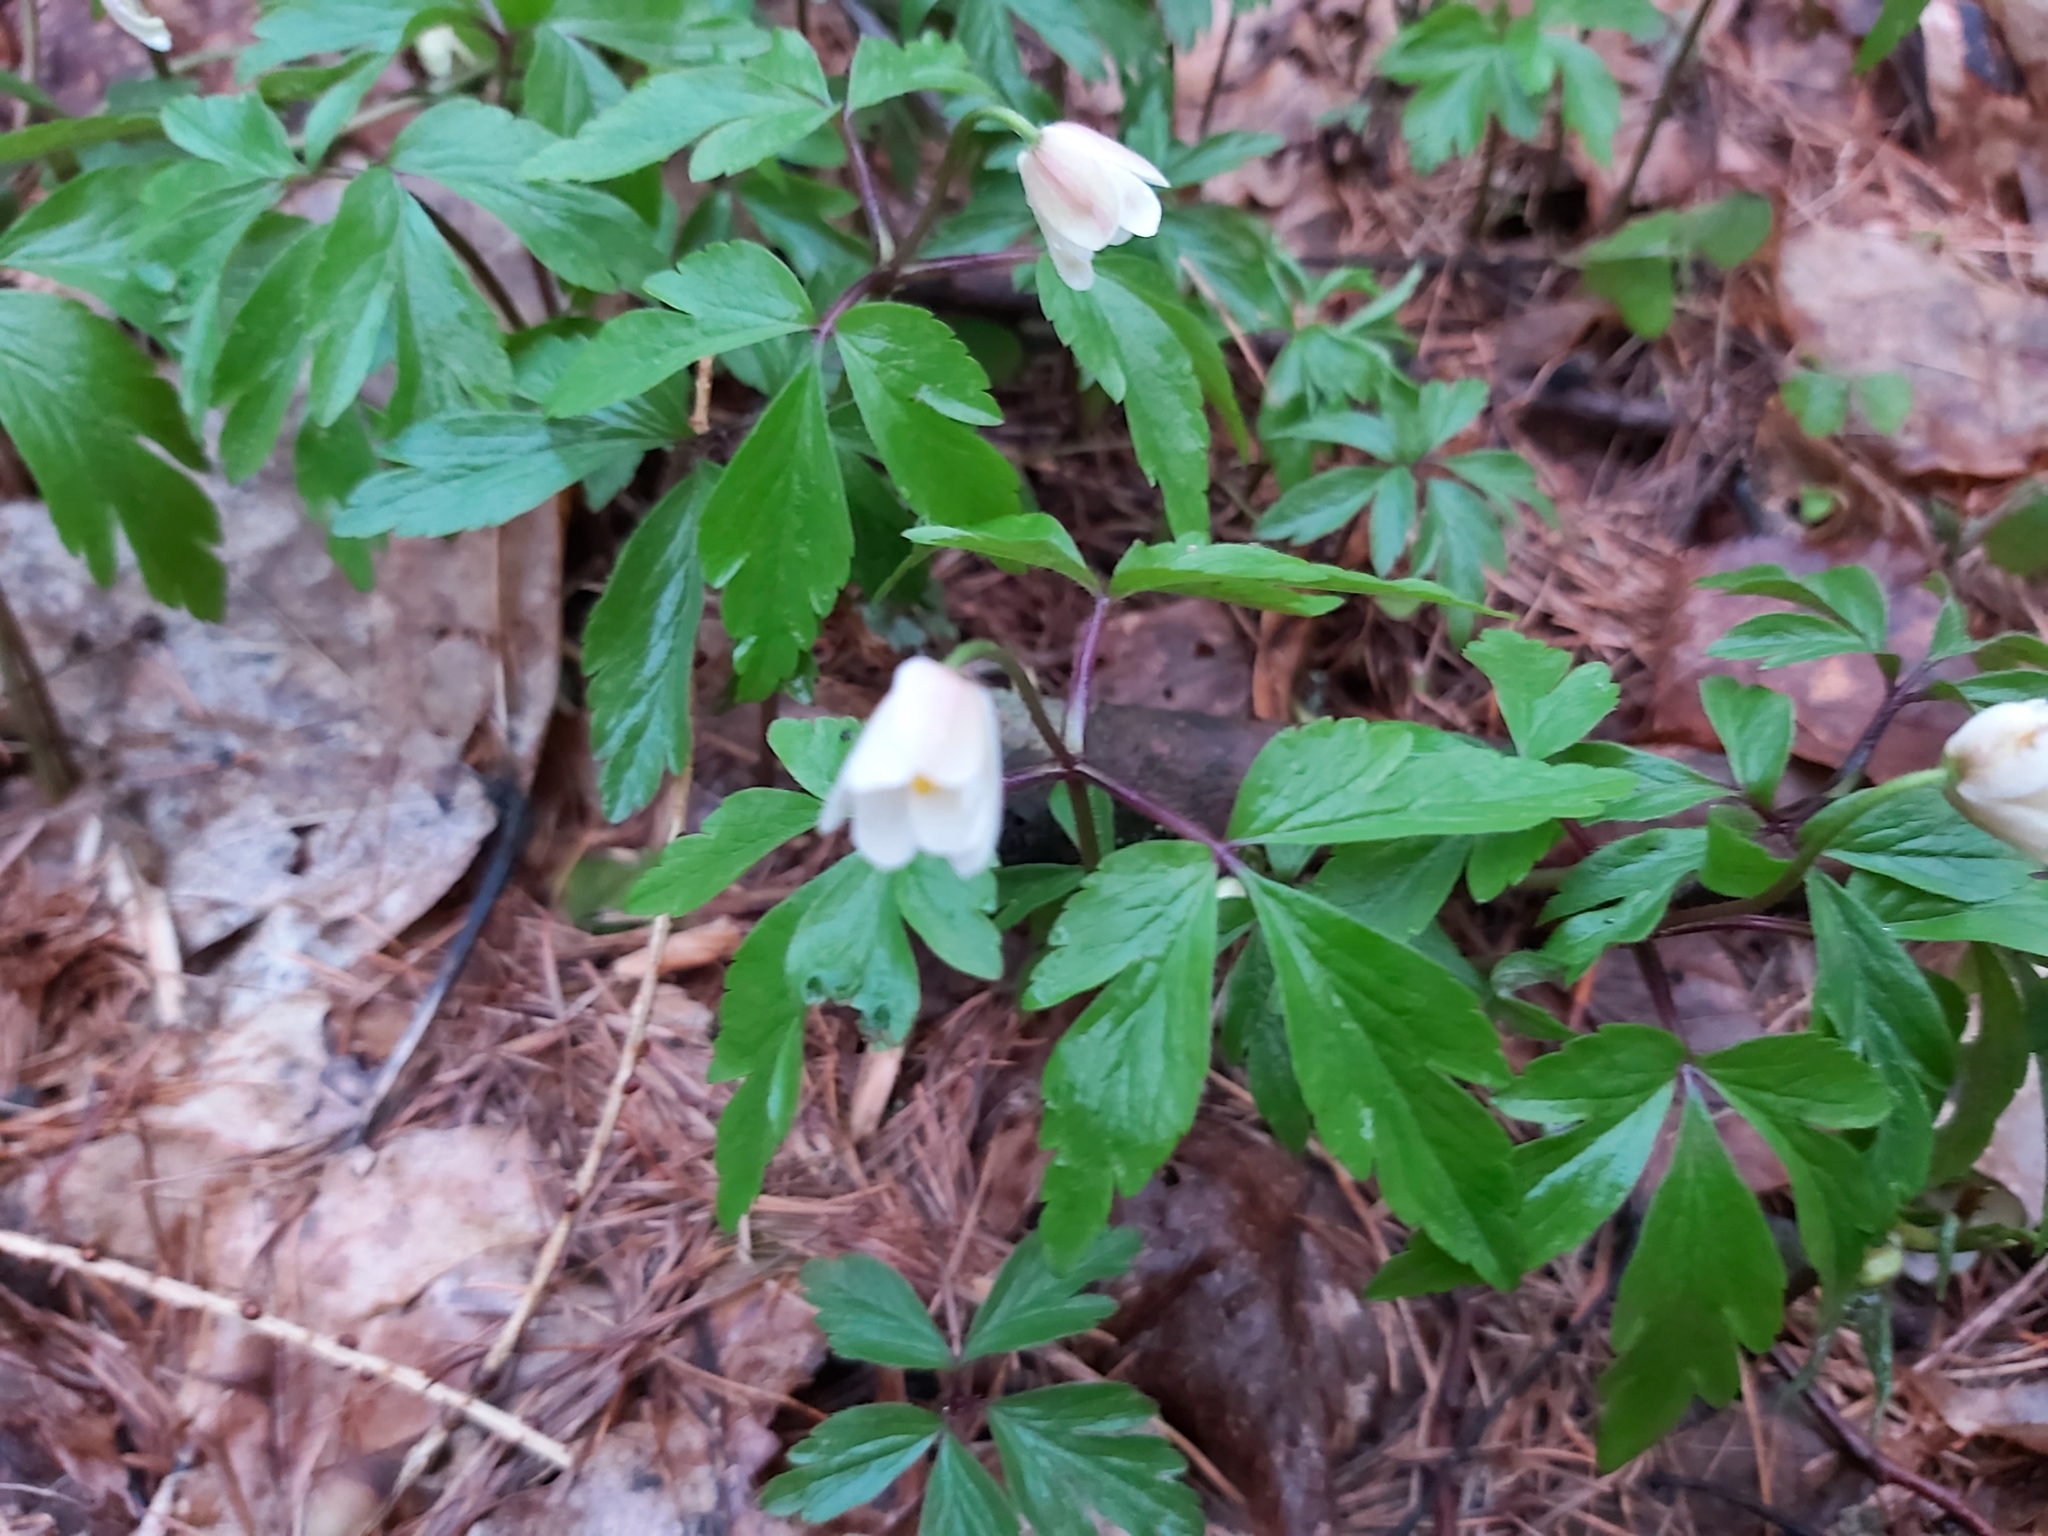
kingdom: Plantae
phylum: Tracheophyta
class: Magnoliopsida
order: Ranunculales
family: Ranunculaceae
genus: Anemone
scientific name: Anemone nemorosa
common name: Wood anemone
